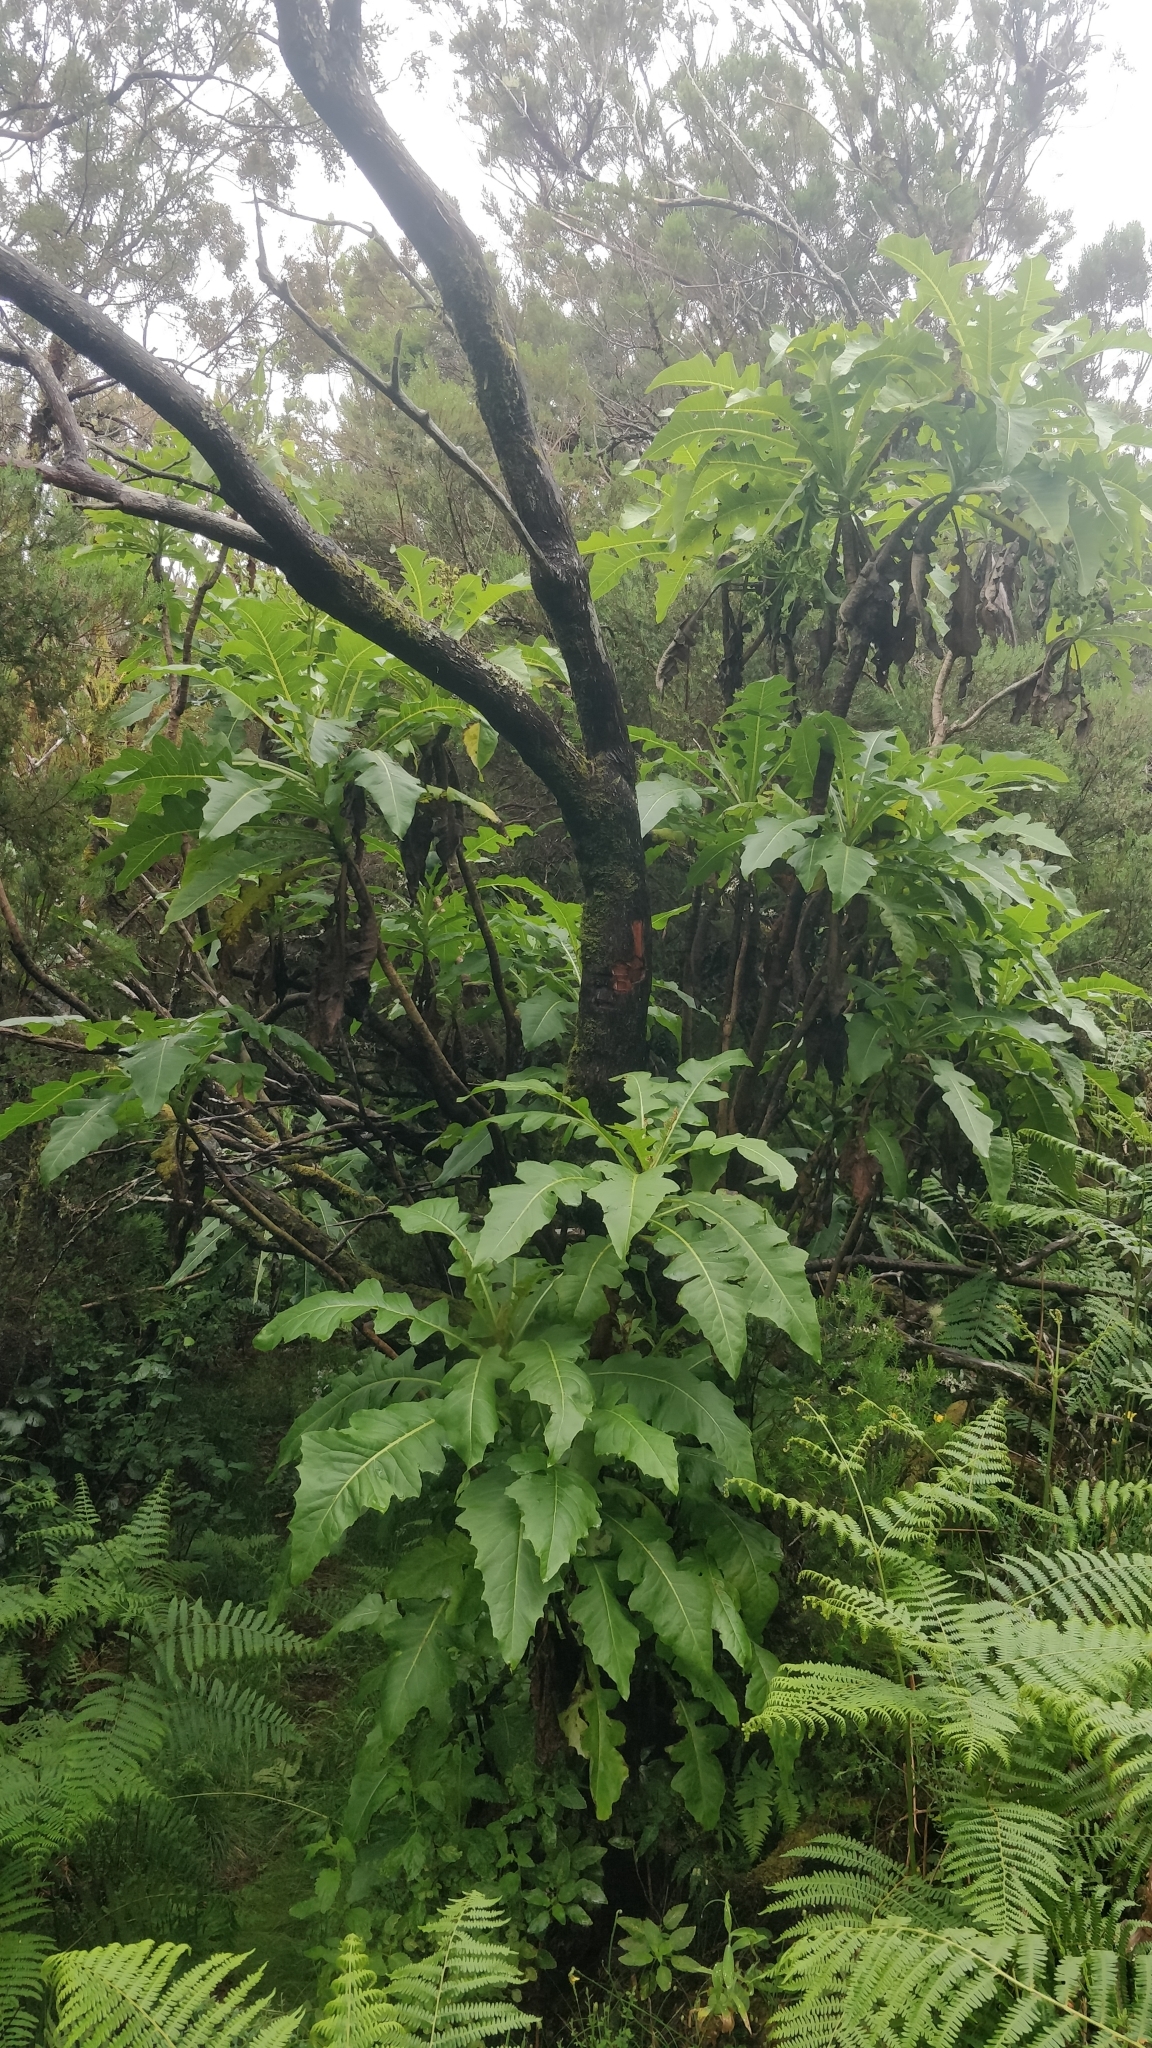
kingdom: Plantae
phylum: Tracheophyta
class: Magnoliopsida
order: Asterales
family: Asteraceae
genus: Sonchus
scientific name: Sonchus fruticosus
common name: Shrubby sow-thistle
